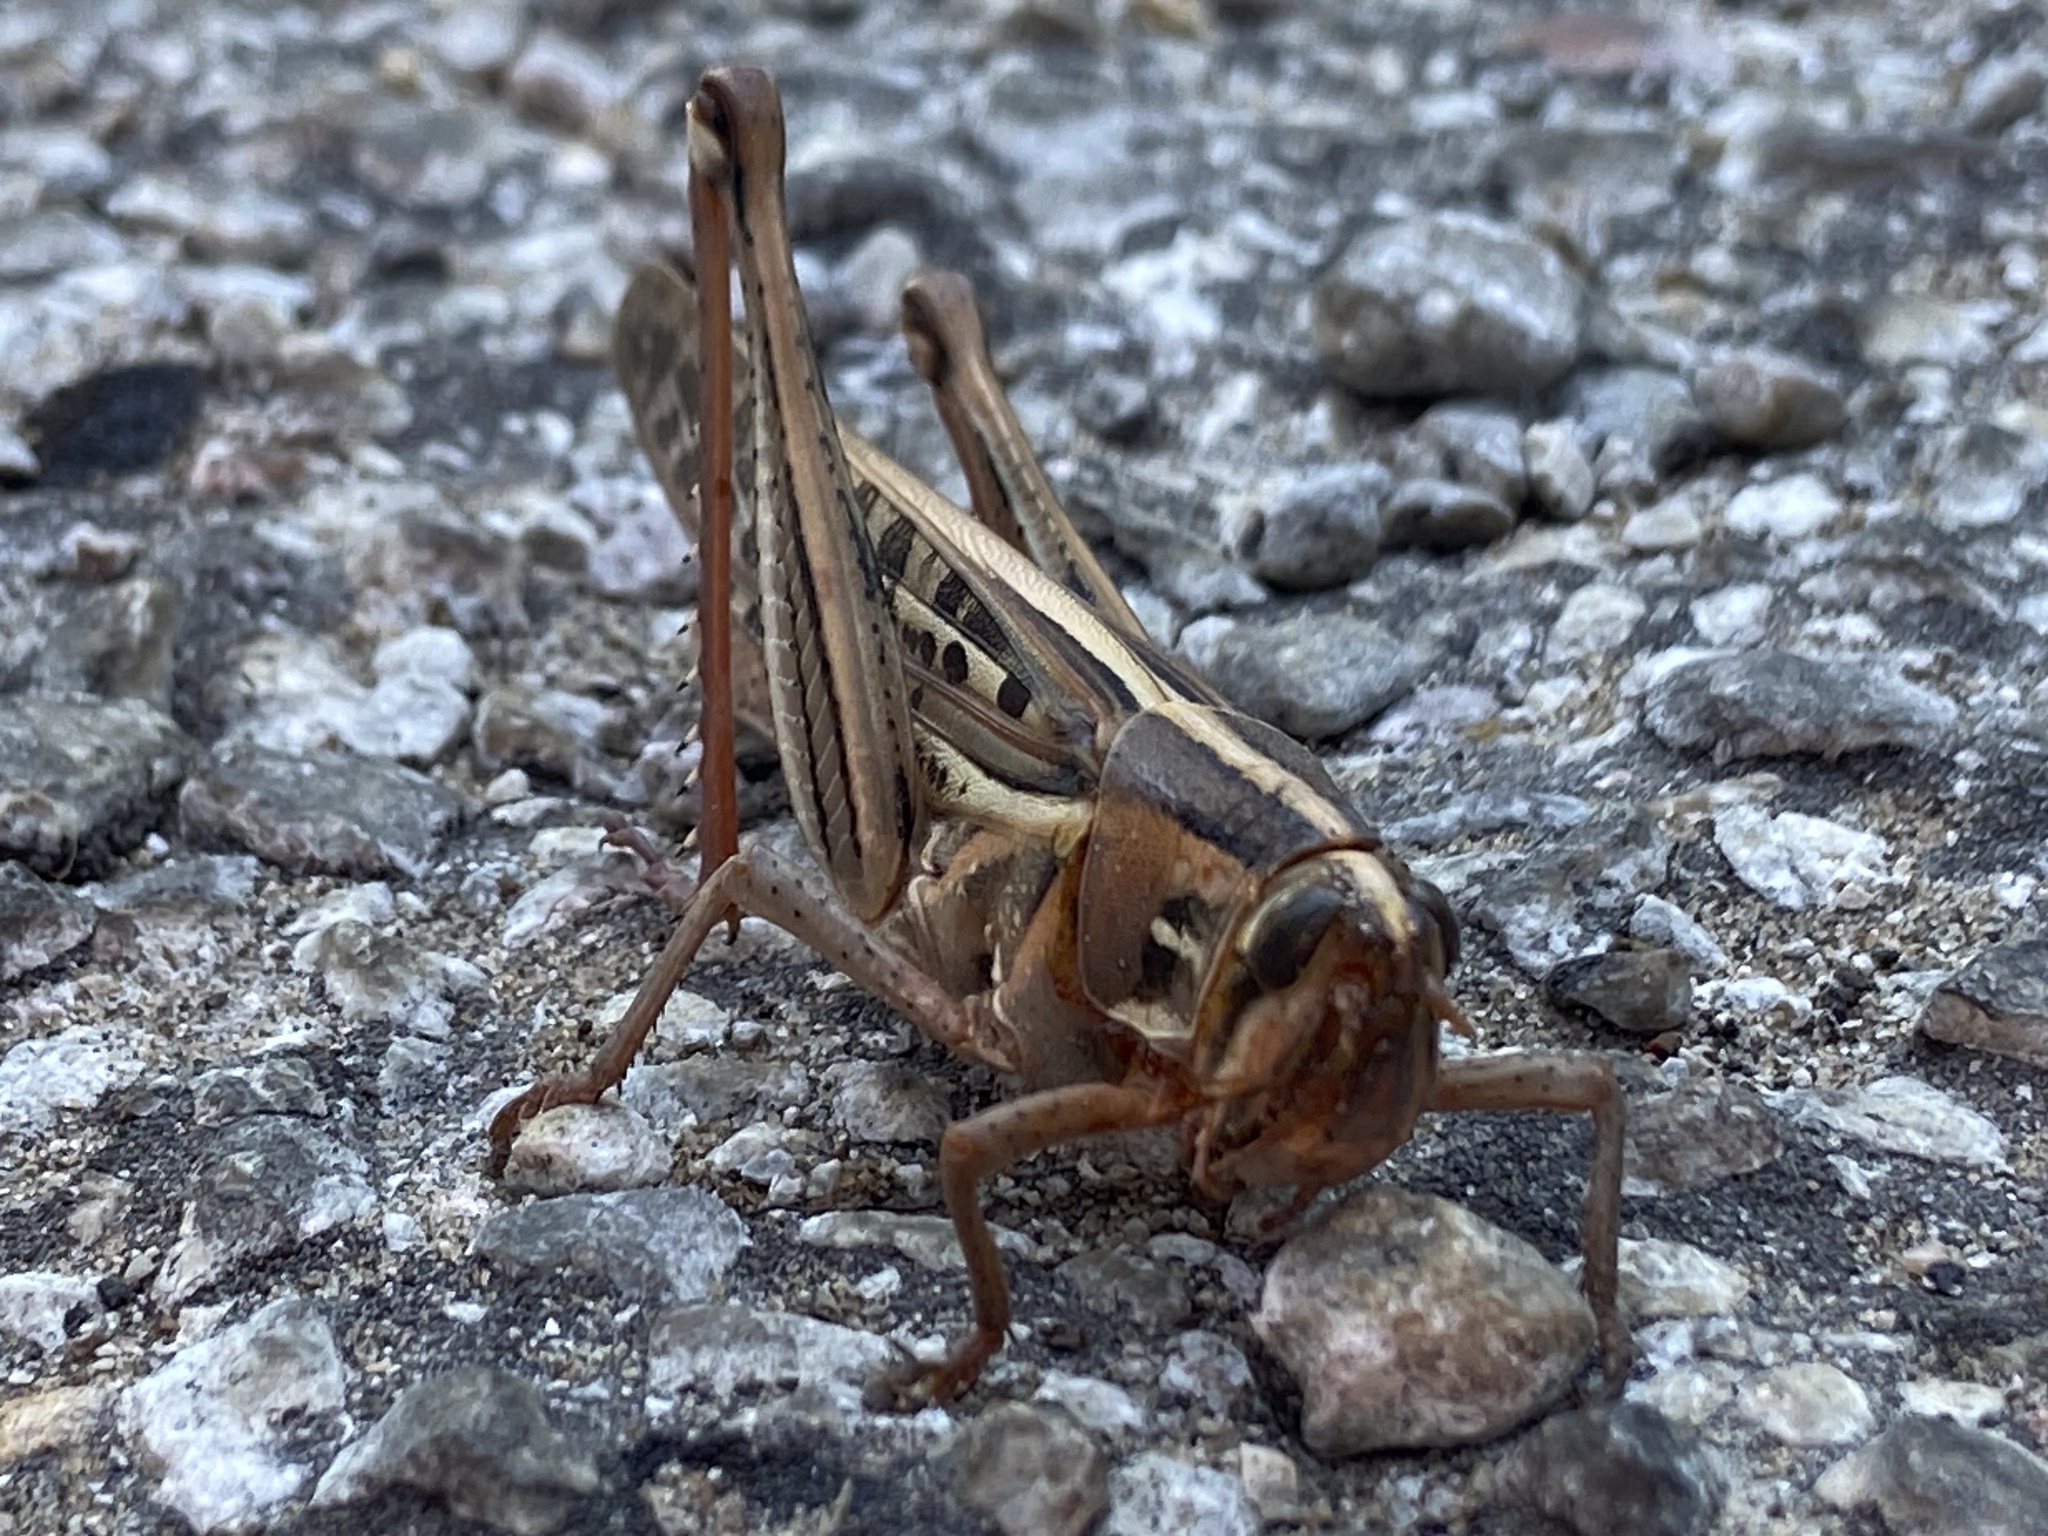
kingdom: Animalia
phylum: Arthropoda
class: Insecta
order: Orthoptera
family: Acrididae
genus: Schistocerca
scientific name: Schistocerca americana
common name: American bird locust
